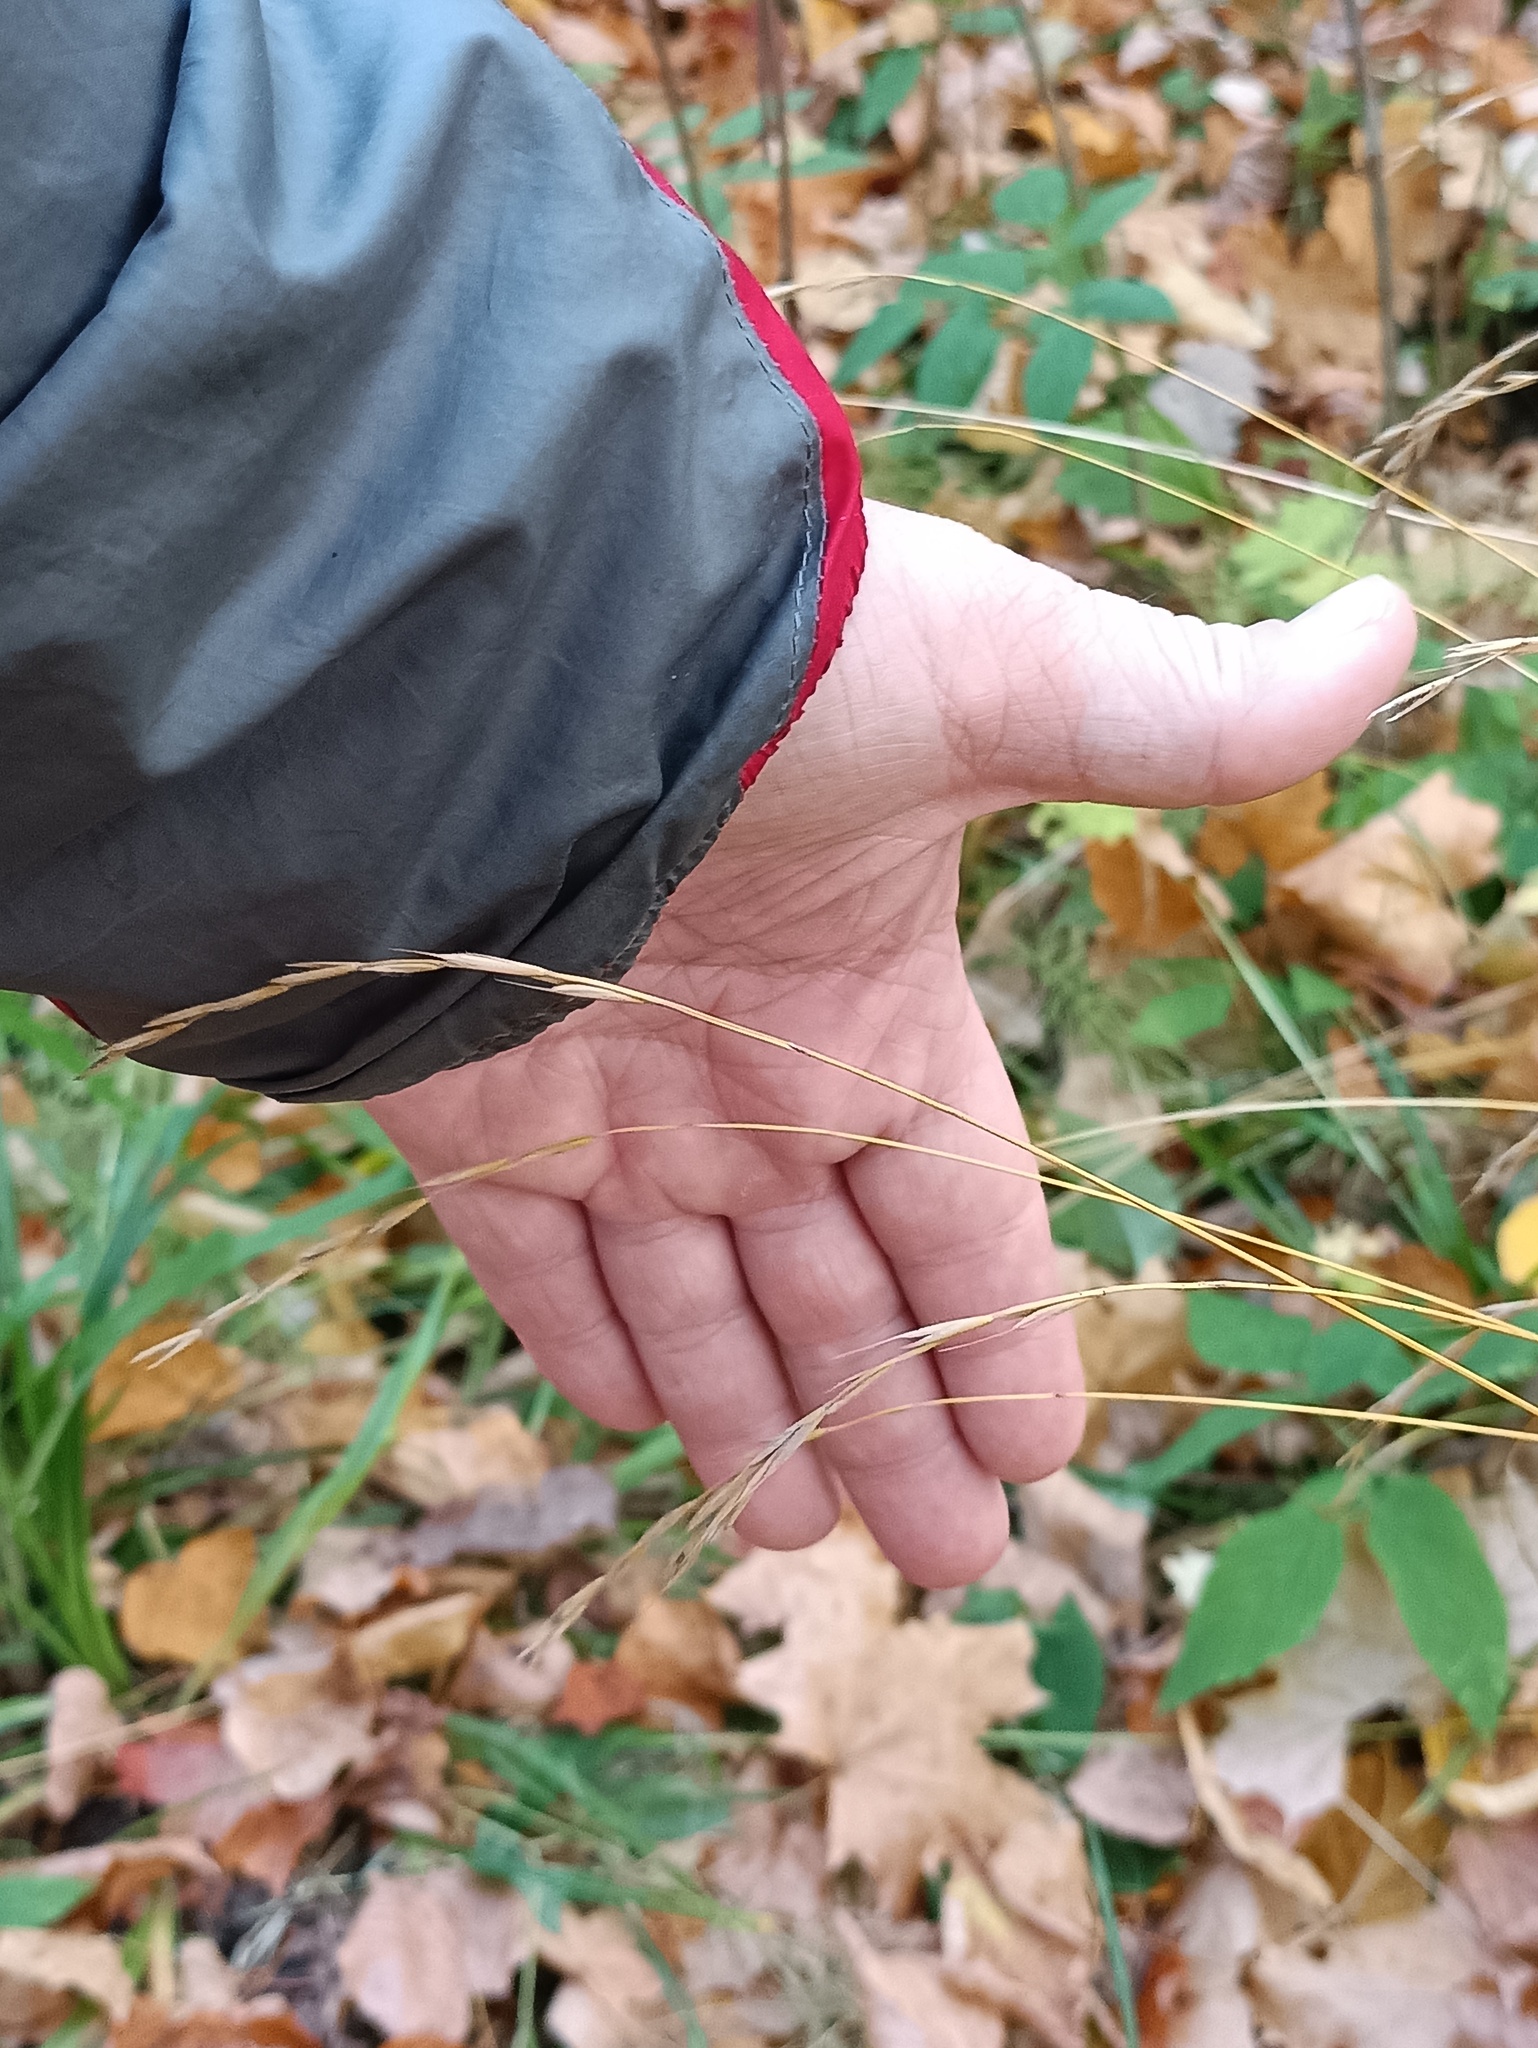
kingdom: Plantae
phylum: Tracheophyta
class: Liliopsida
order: Poales
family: Poaceae
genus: Brachypodium
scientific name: Brachypodium sylvaticum
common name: False-brome
